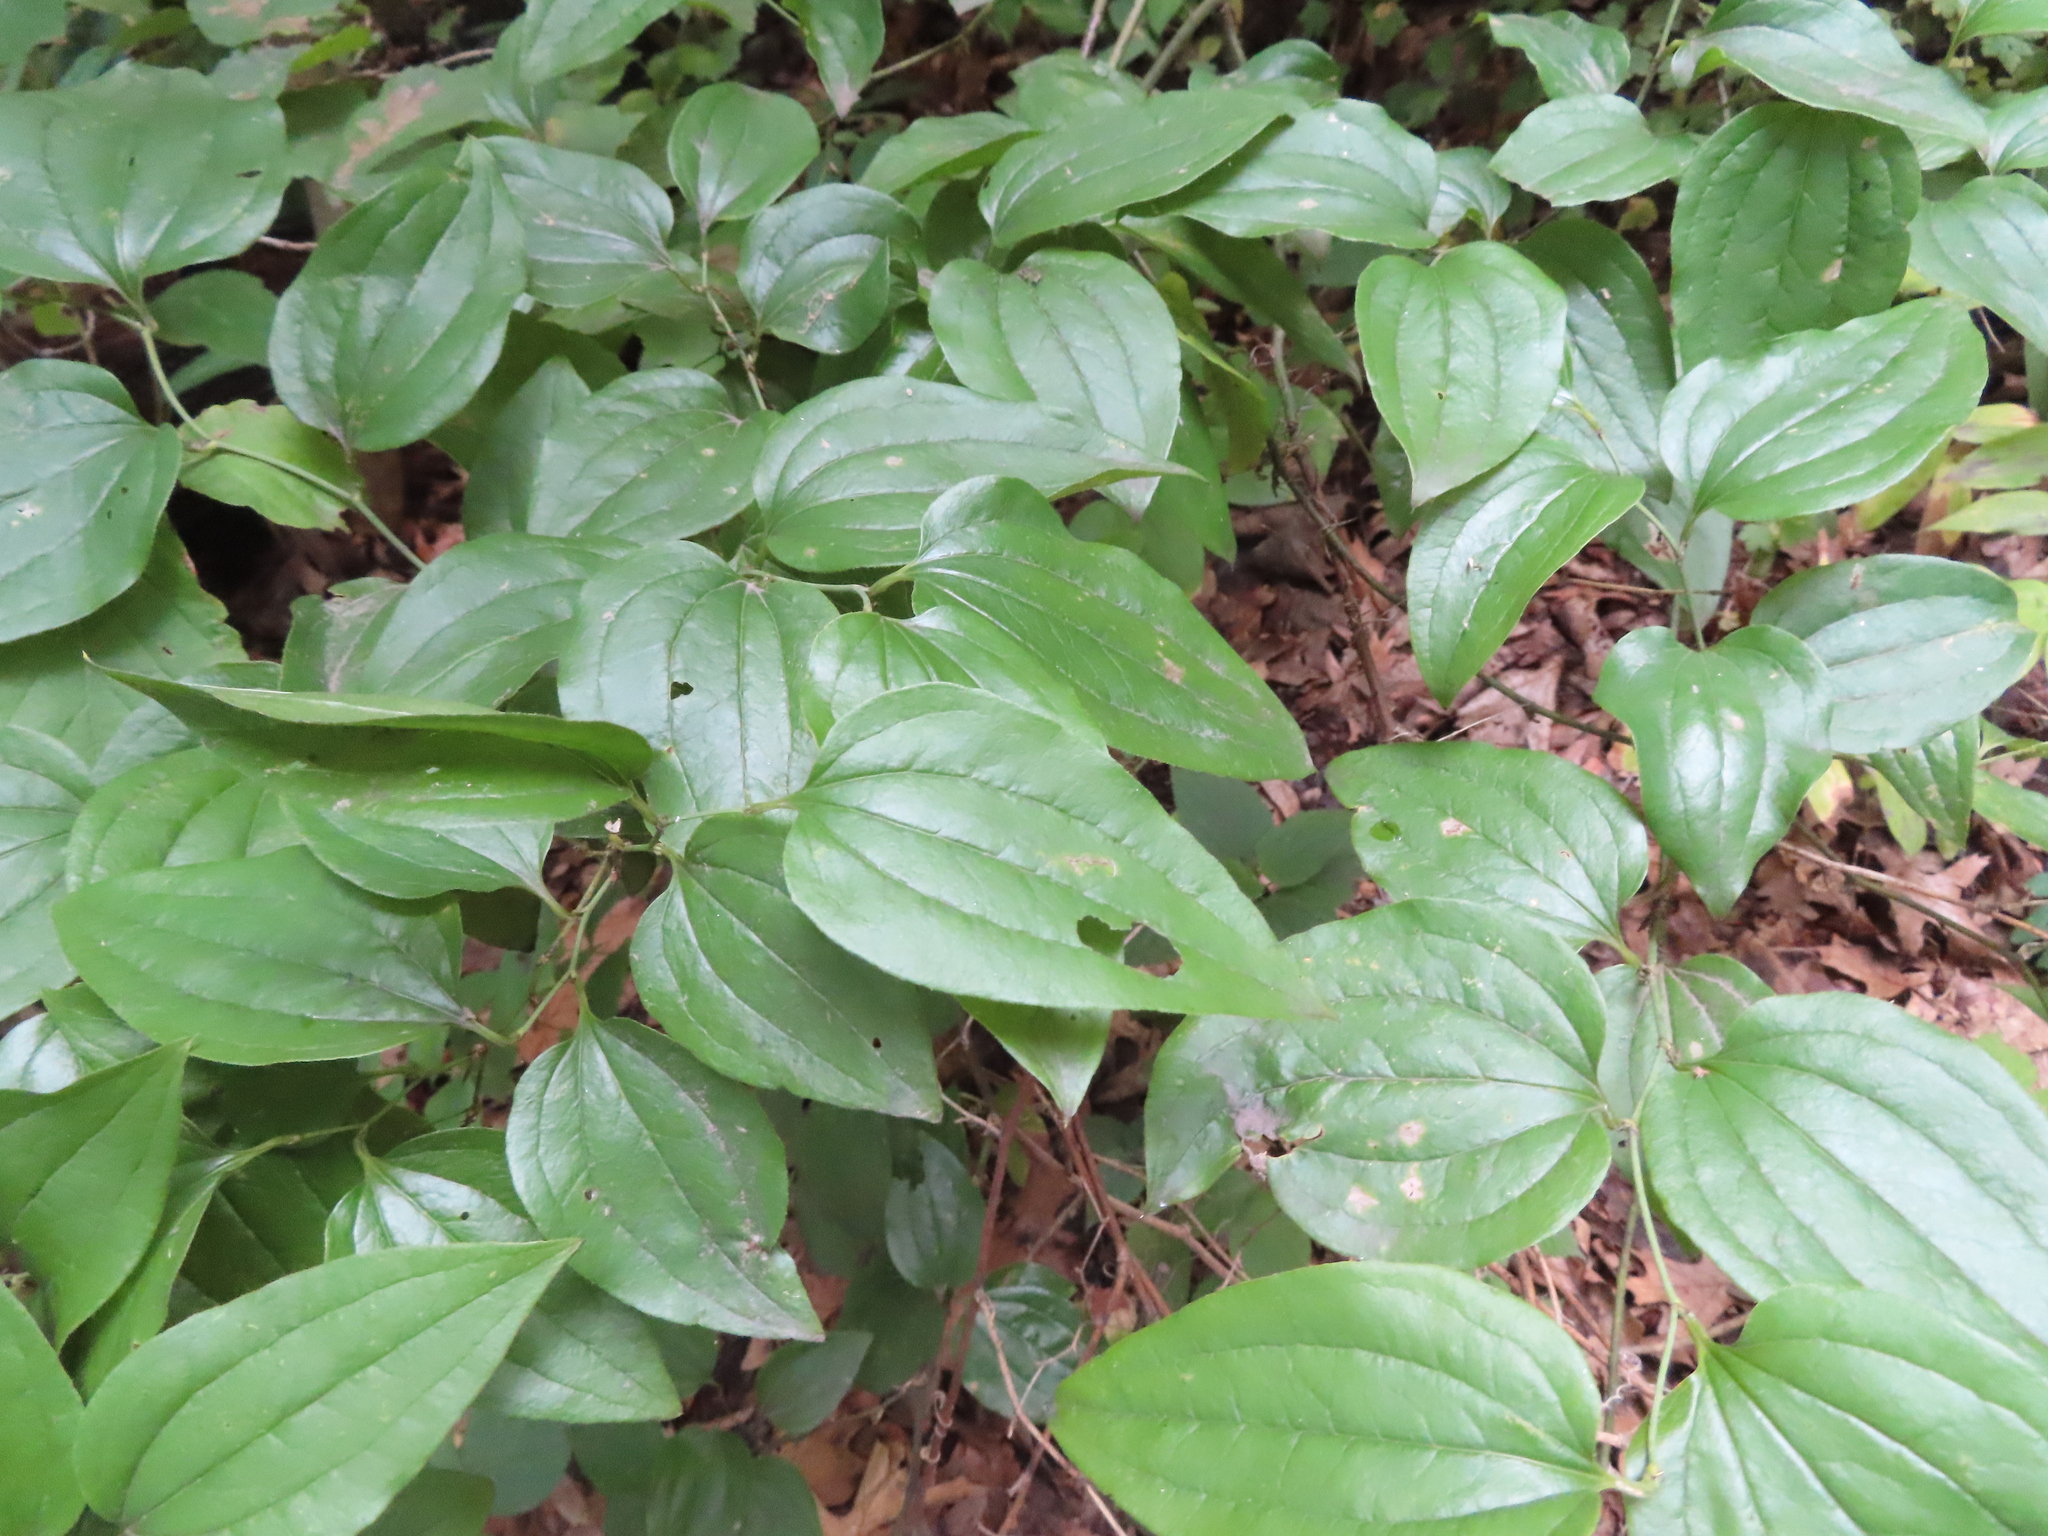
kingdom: Plantae
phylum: Tracheophyta
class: Liliopsida
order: Liliales
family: Smilacaceae
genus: Smilax
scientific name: Smilax tamnoides
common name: Hellfetter
